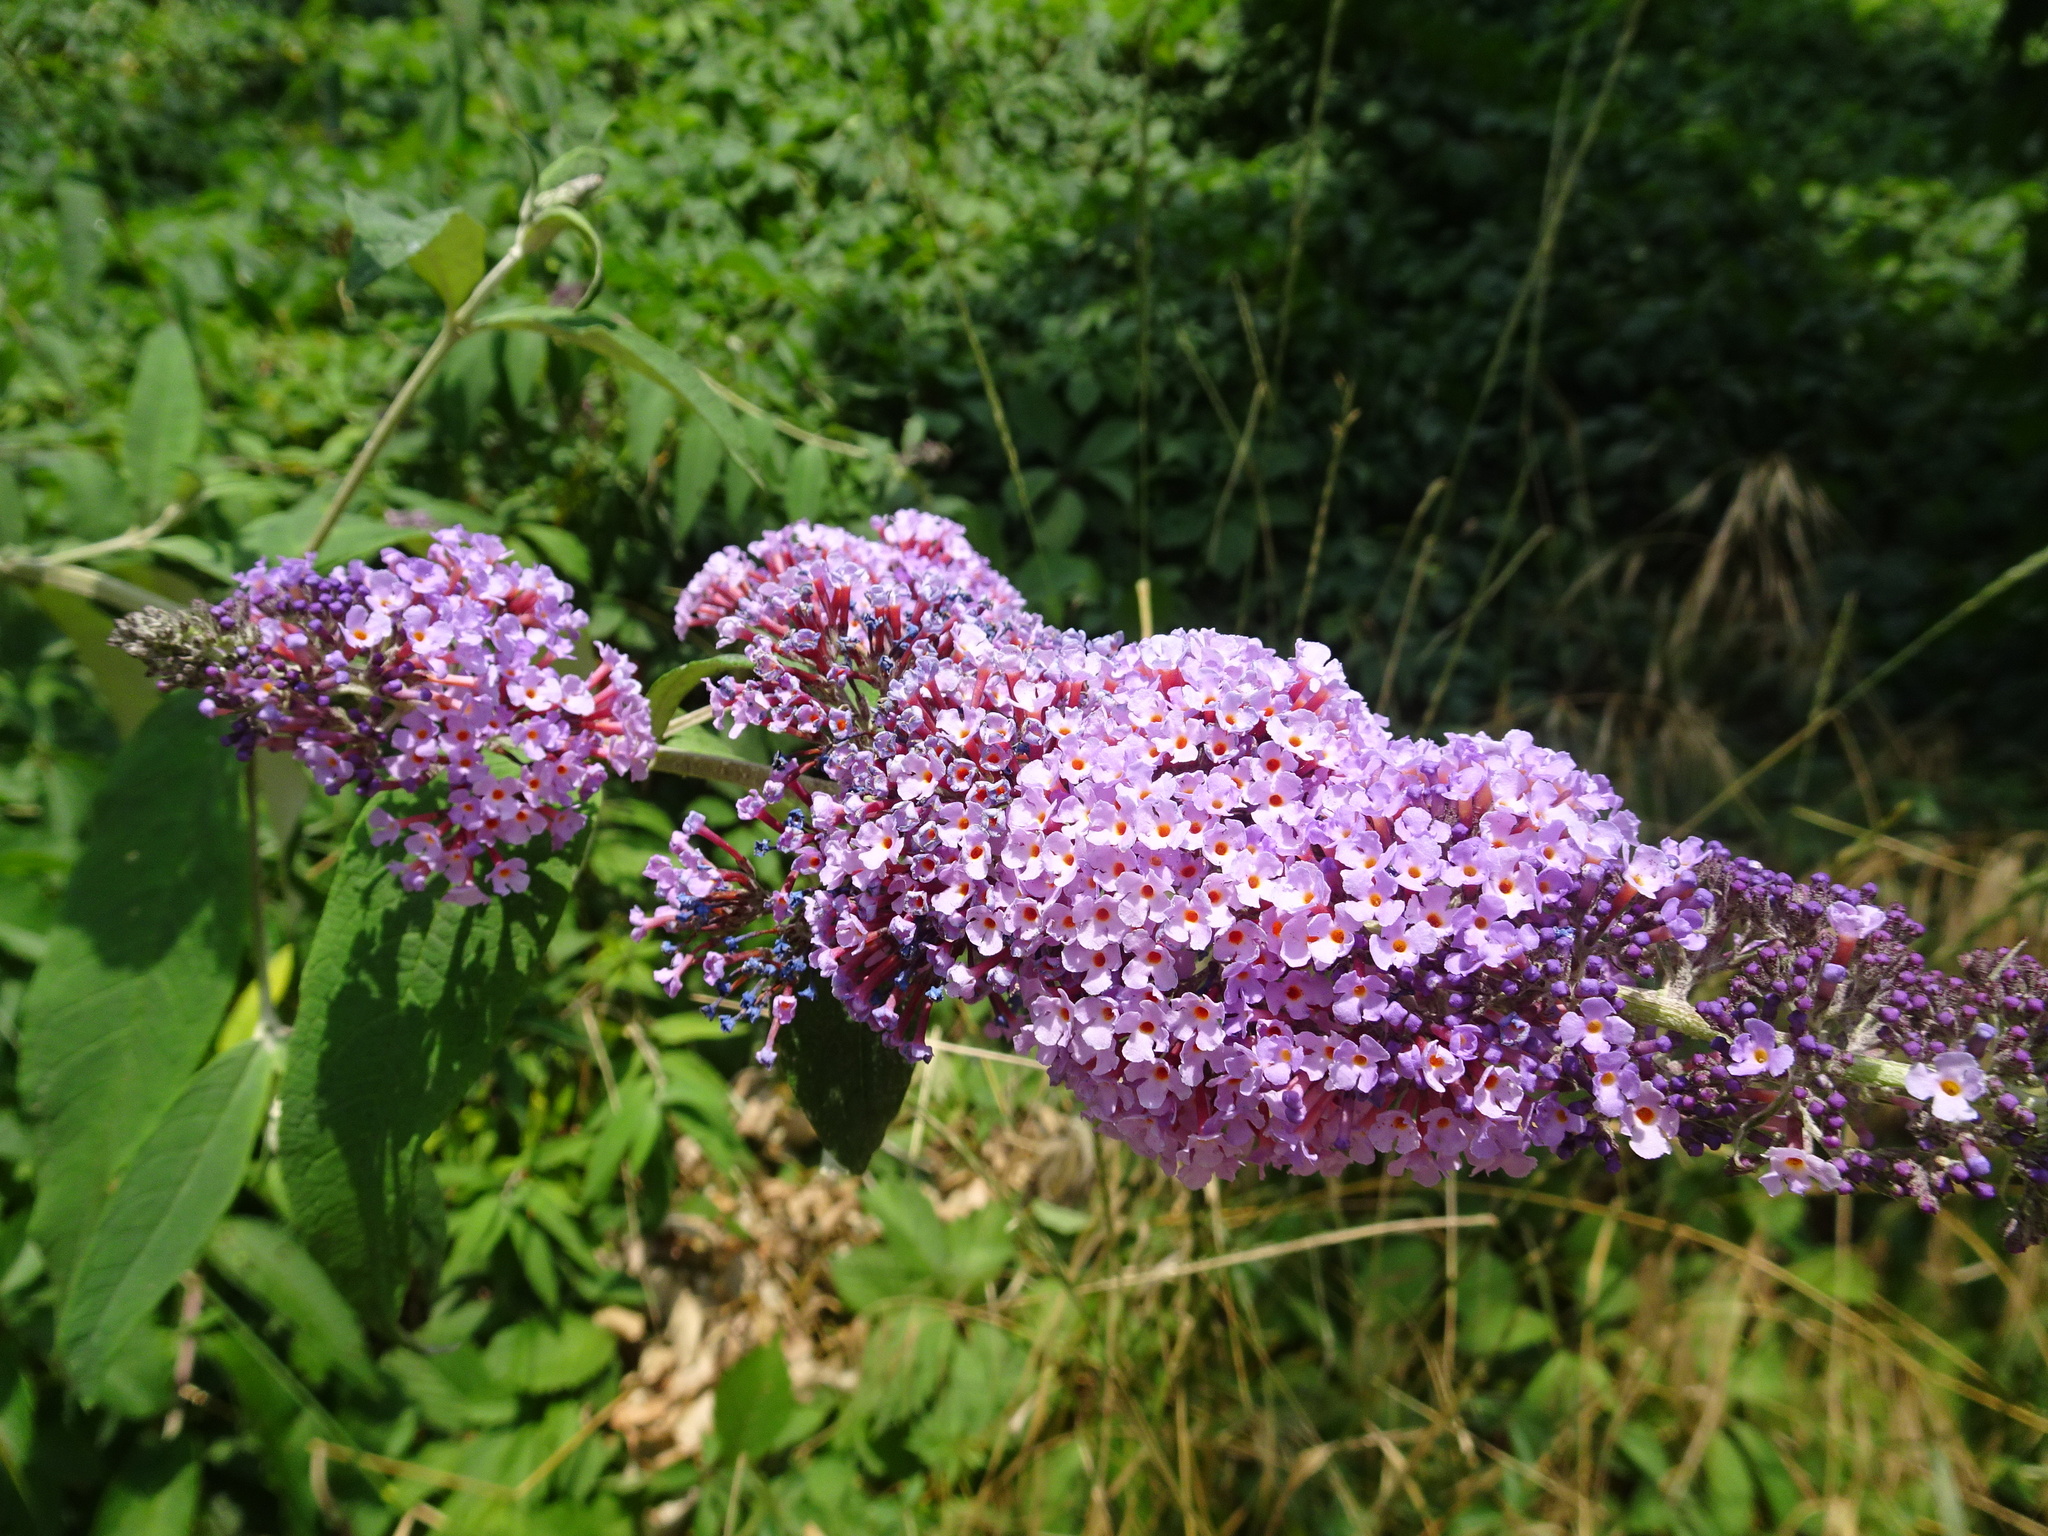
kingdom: Plantae
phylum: Tracheophyta
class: Magnoliopsida
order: Lamiales
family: Scrophulariaceae
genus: Buddleja
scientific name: Buddleja davidii
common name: Butterfly-bush
